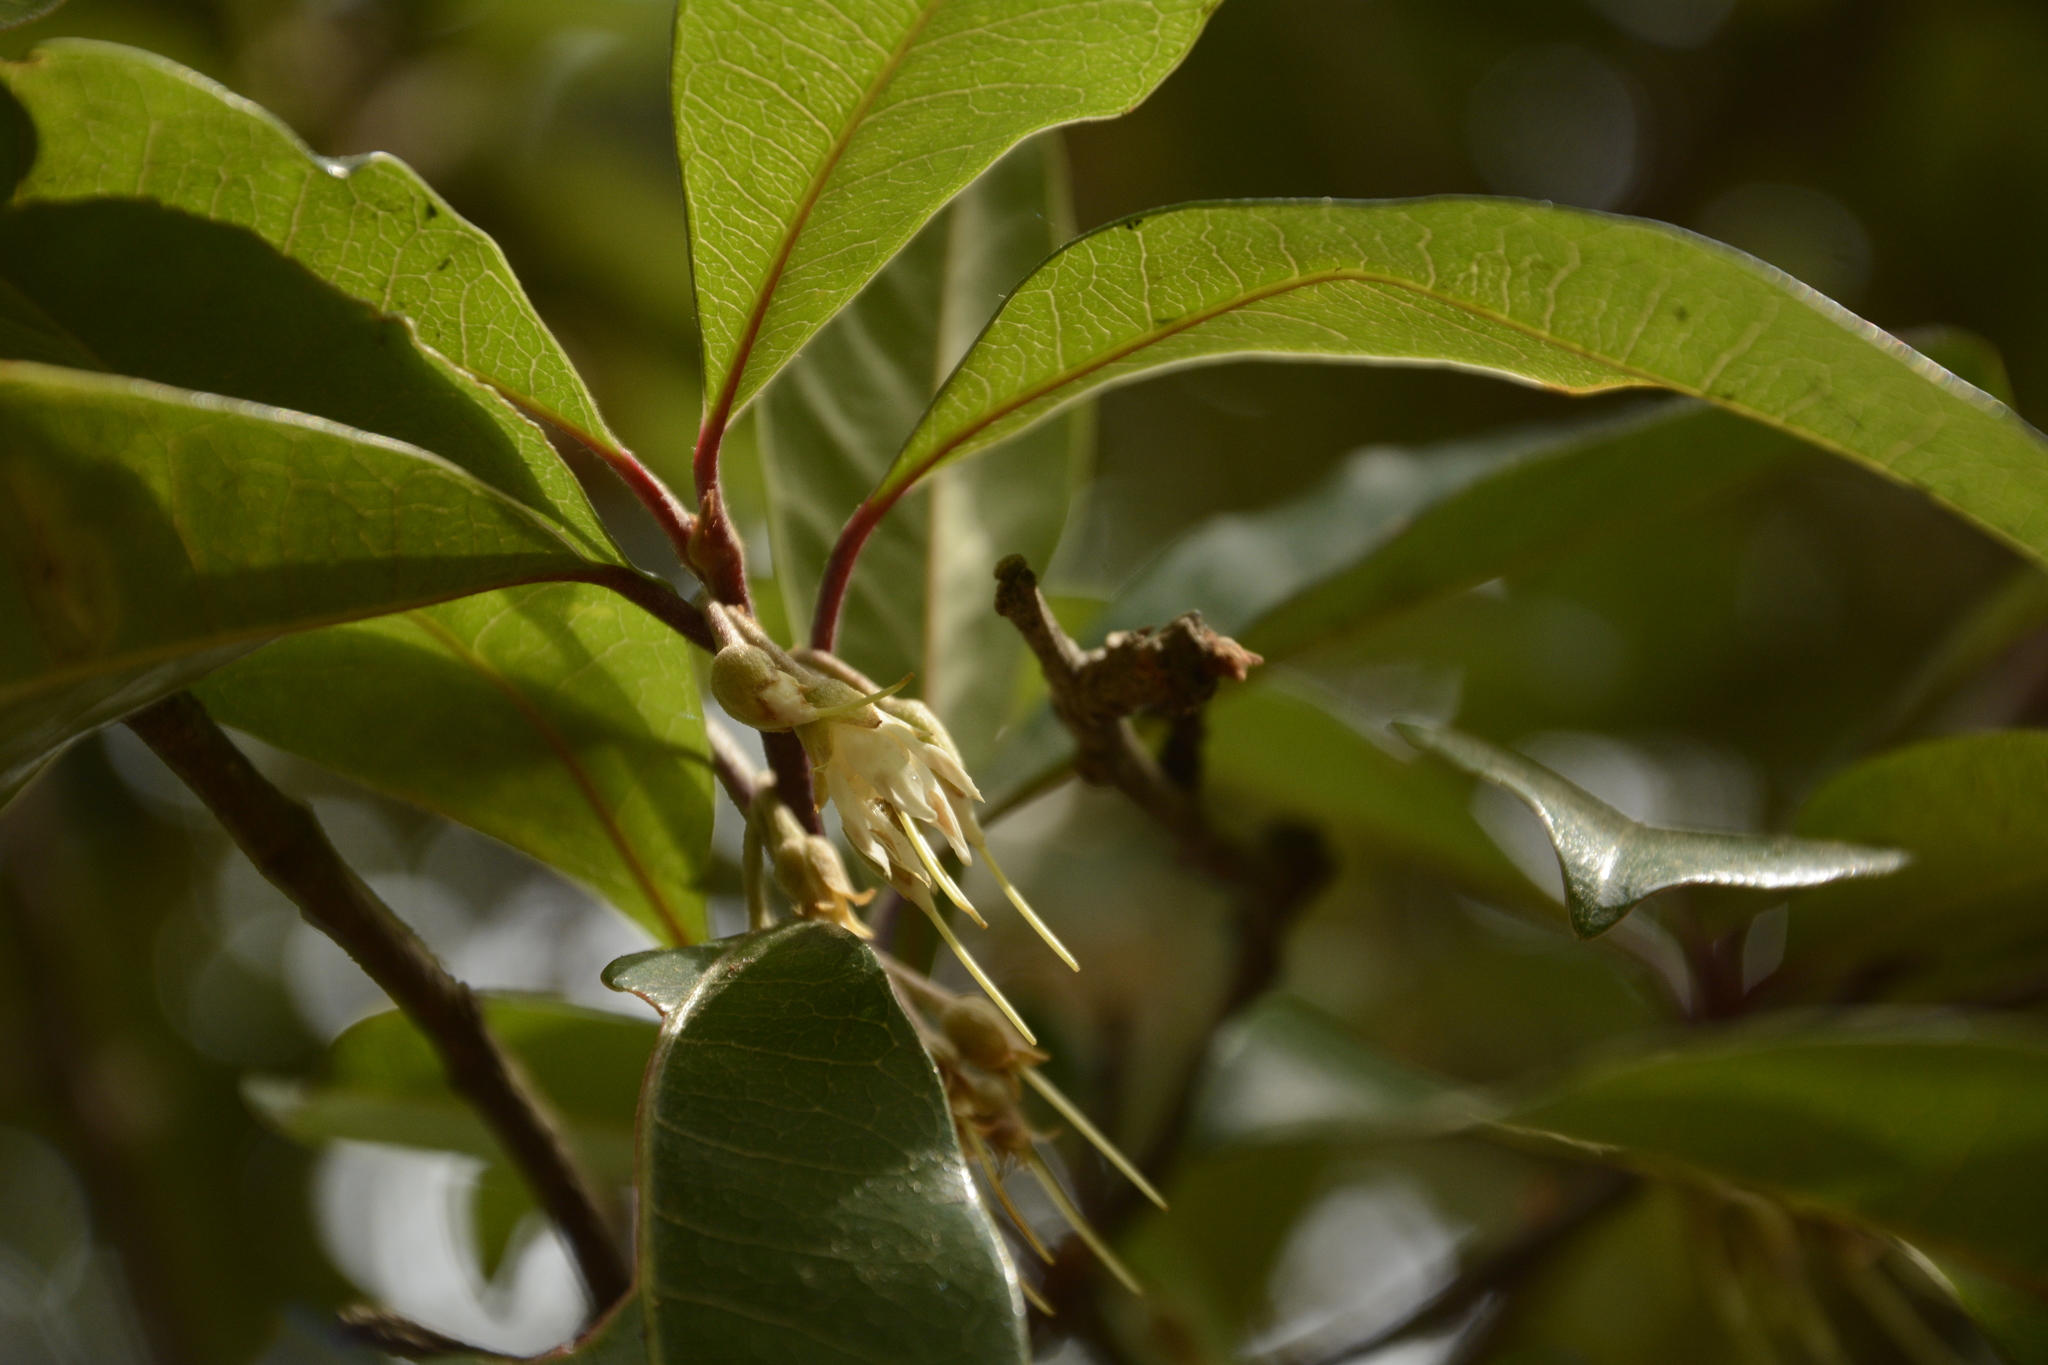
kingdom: Plantae
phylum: Tracheophyta
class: Magnoliopsida
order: Ericales
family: Sapotaceae
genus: Xantolis
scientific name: Xantolis tomentosa
